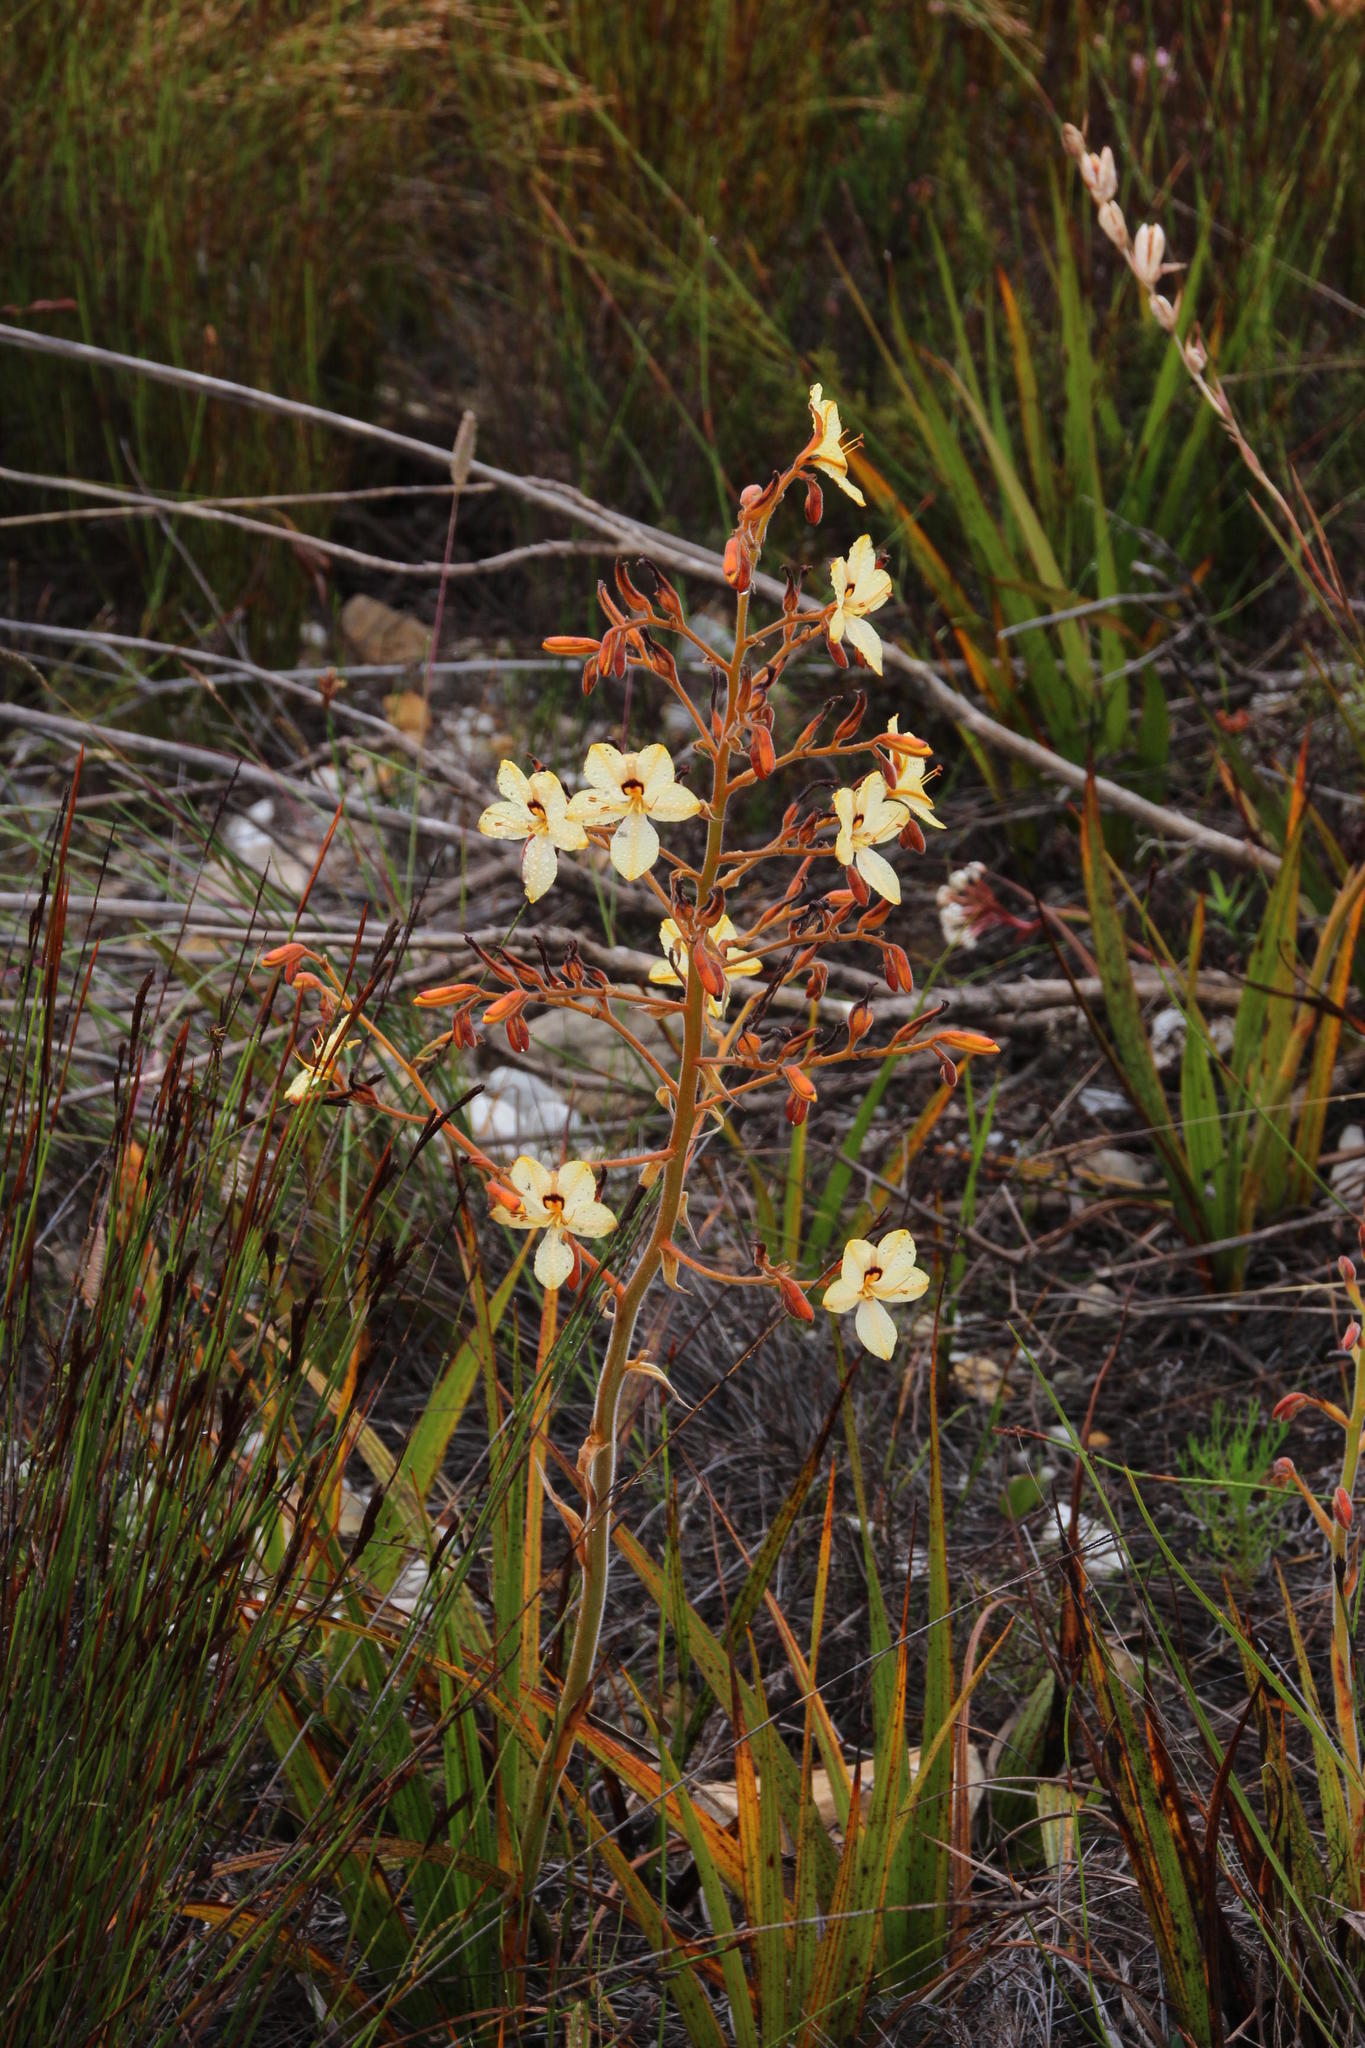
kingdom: Plantae
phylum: Tracheophyta
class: Liliopsida
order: Commelinales
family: Haemodoraceae
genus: Wachendorfia
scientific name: Wachendorfia paniculata
